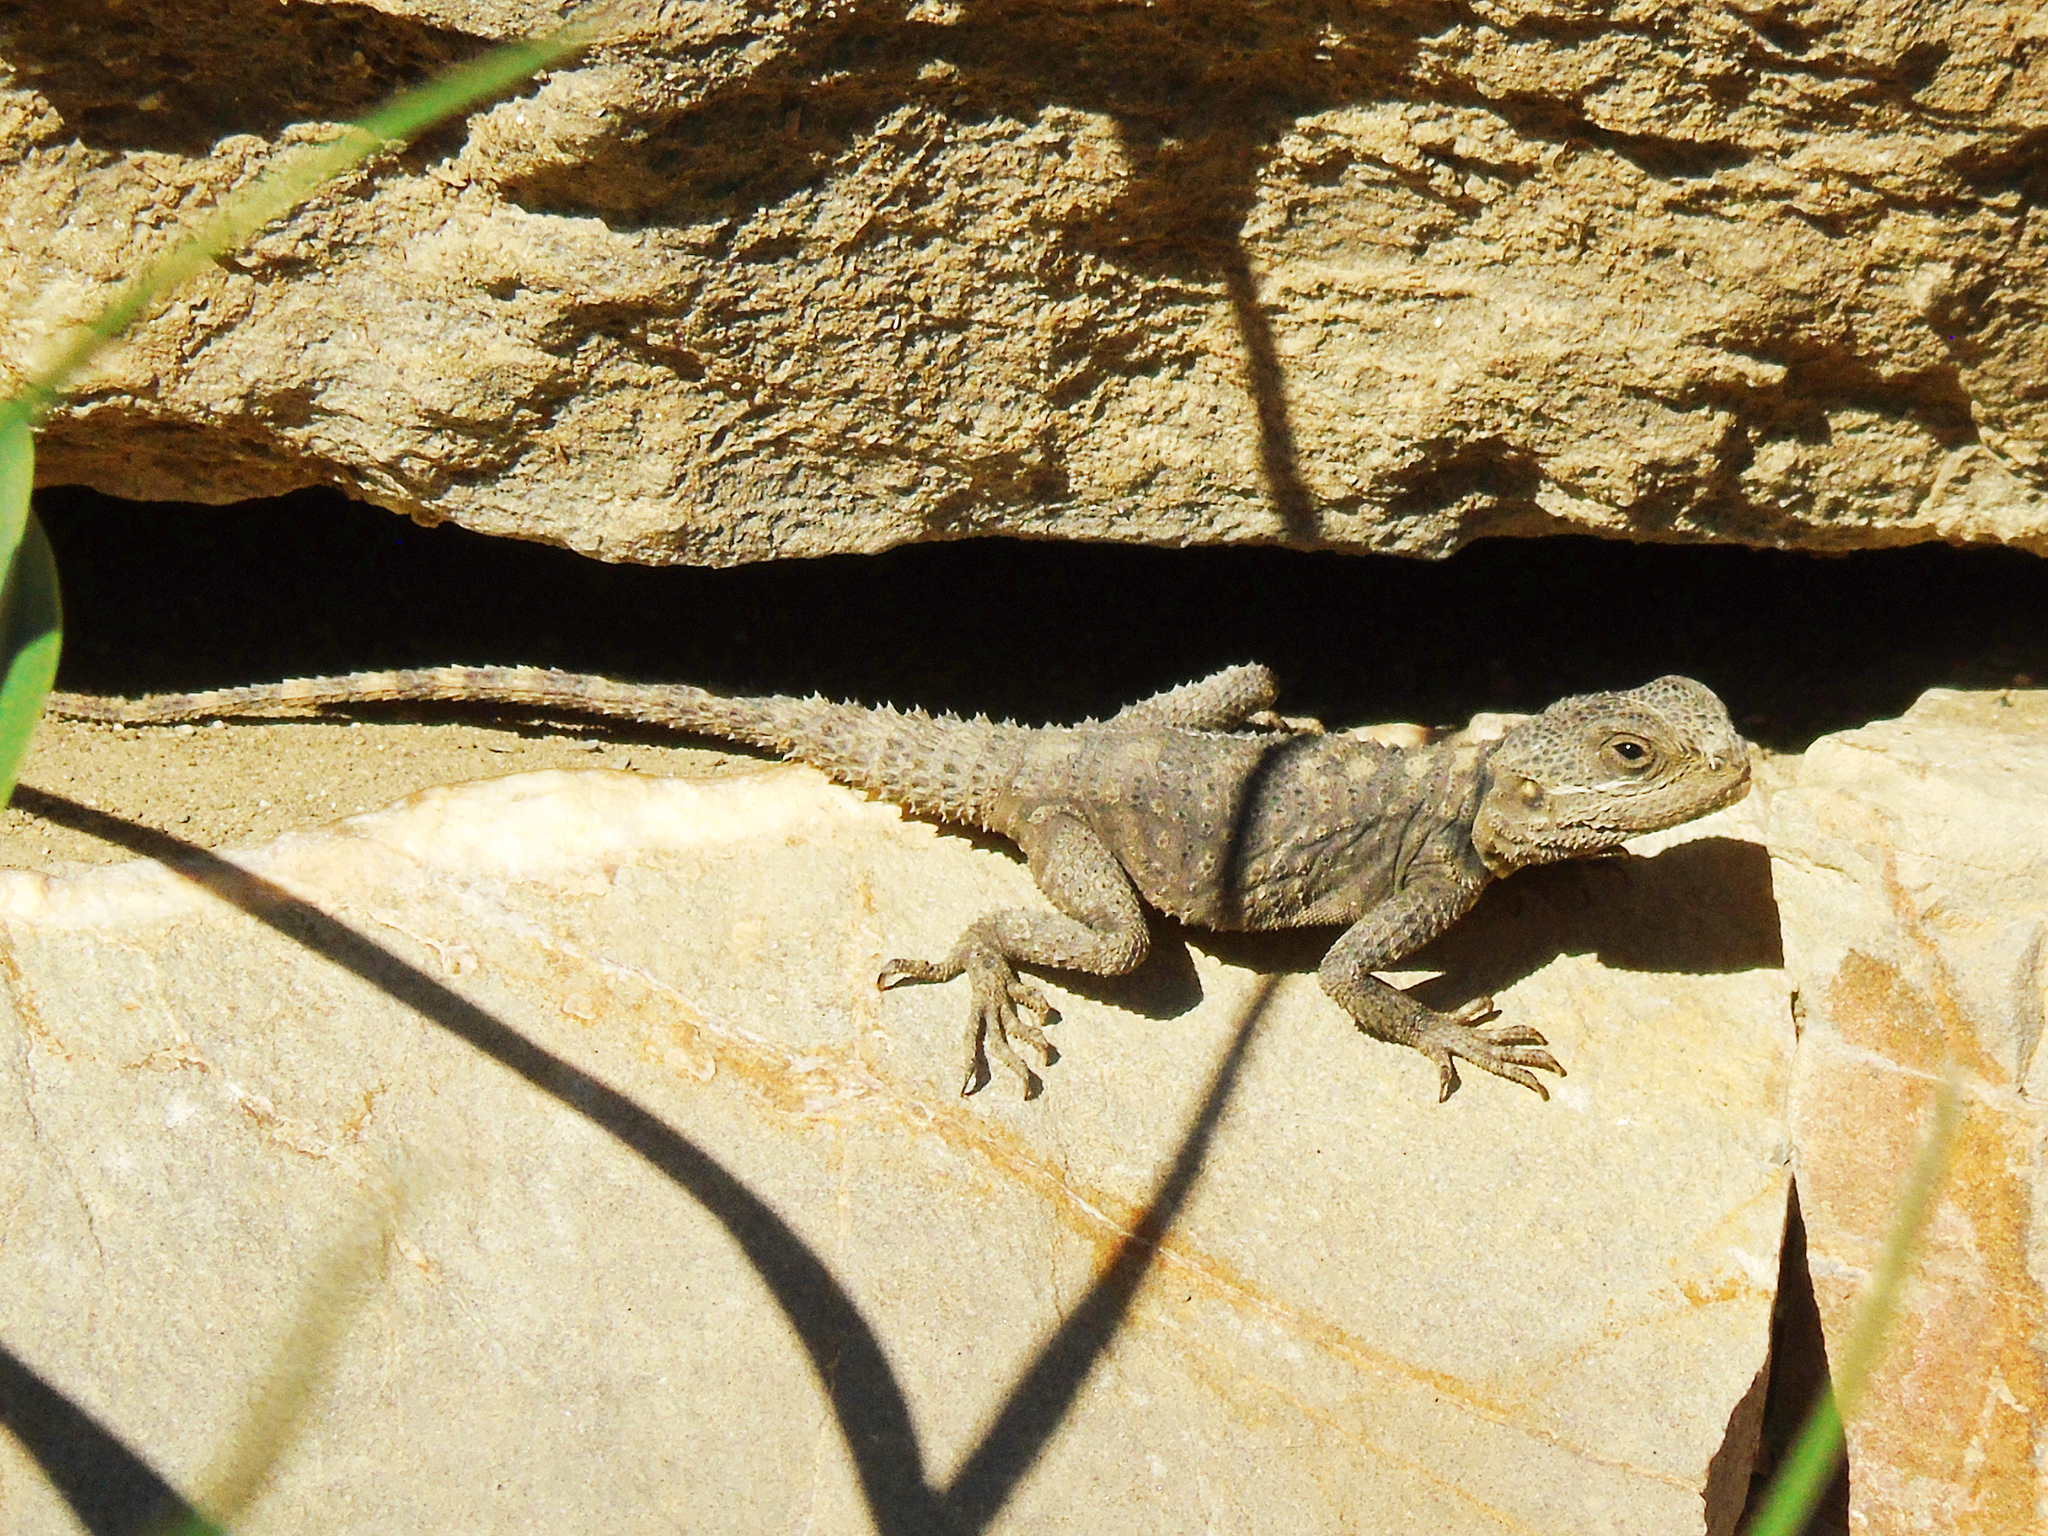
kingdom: Animalia
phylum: Chordata
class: Squamata
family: Agamidae
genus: Stellagama
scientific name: Stellagama stellio
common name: Starred agama
